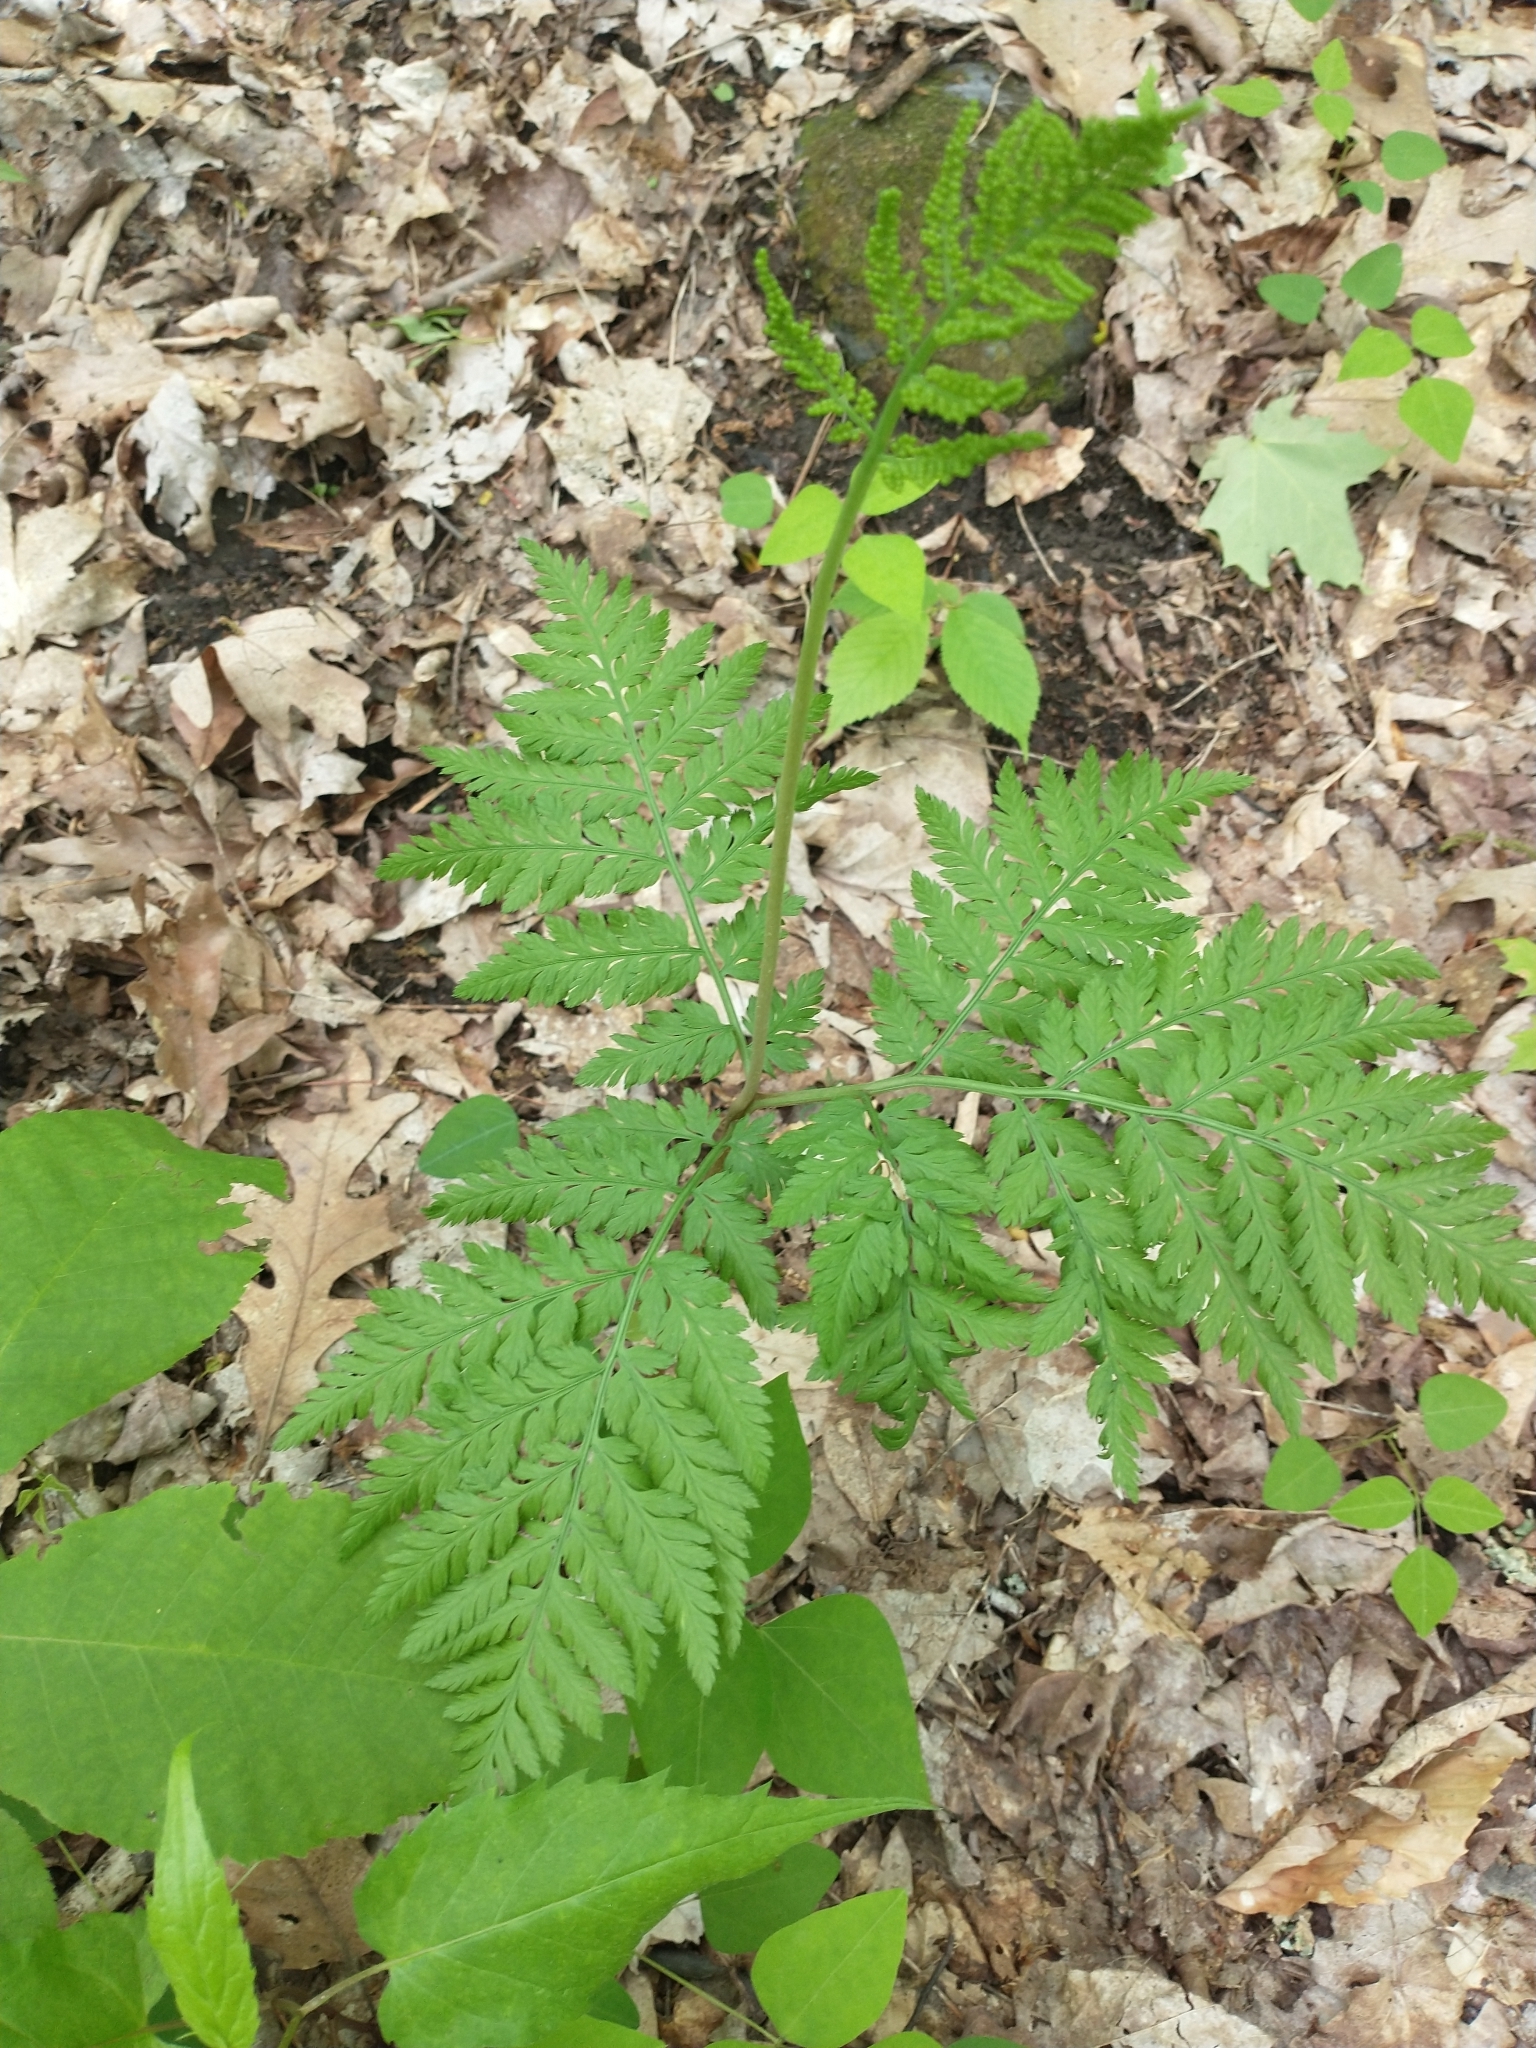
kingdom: Plantae
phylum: Tracheophyta
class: Polypodiopsida
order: Ophioglossales
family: Ophioglossaceae
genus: Botrypus
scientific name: Botrypus virginianus
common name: Common grapefern
